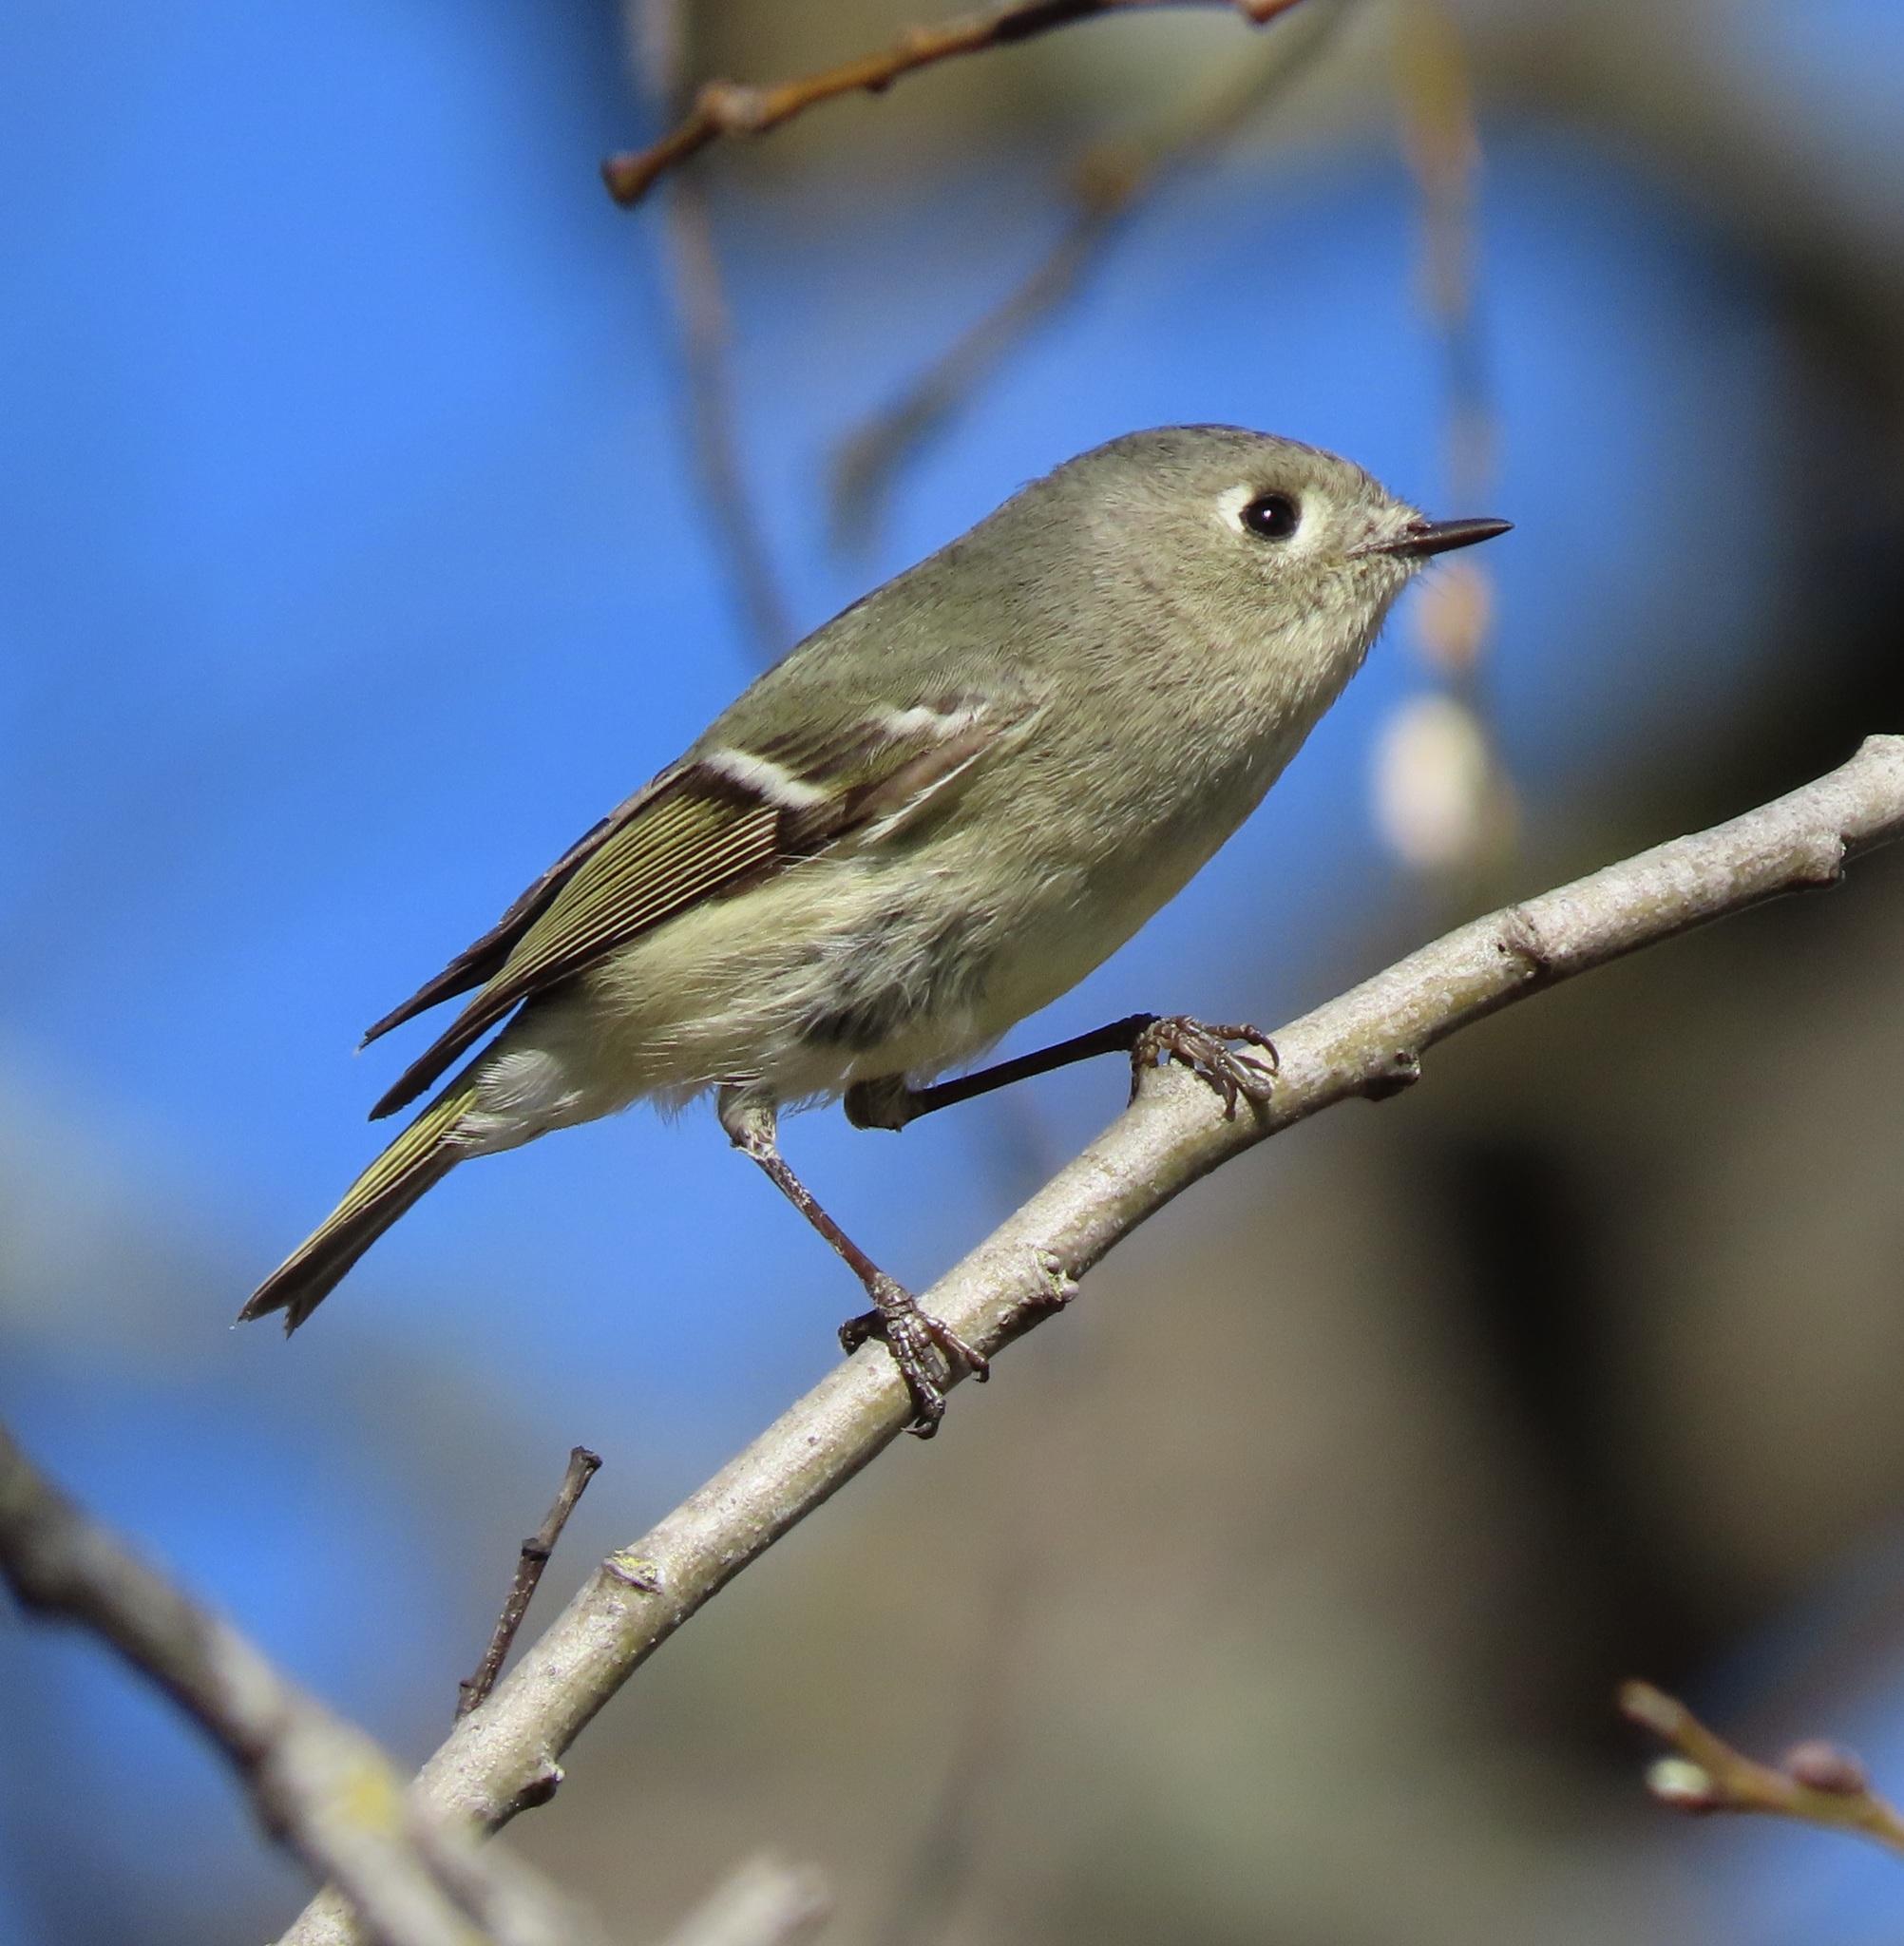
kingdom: Animalia
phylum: Chordata
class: Aves
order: Passeriformes
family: Regulidae
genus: Regulus
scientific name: Regulus calendula
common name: Ruby-crowned kinglet
